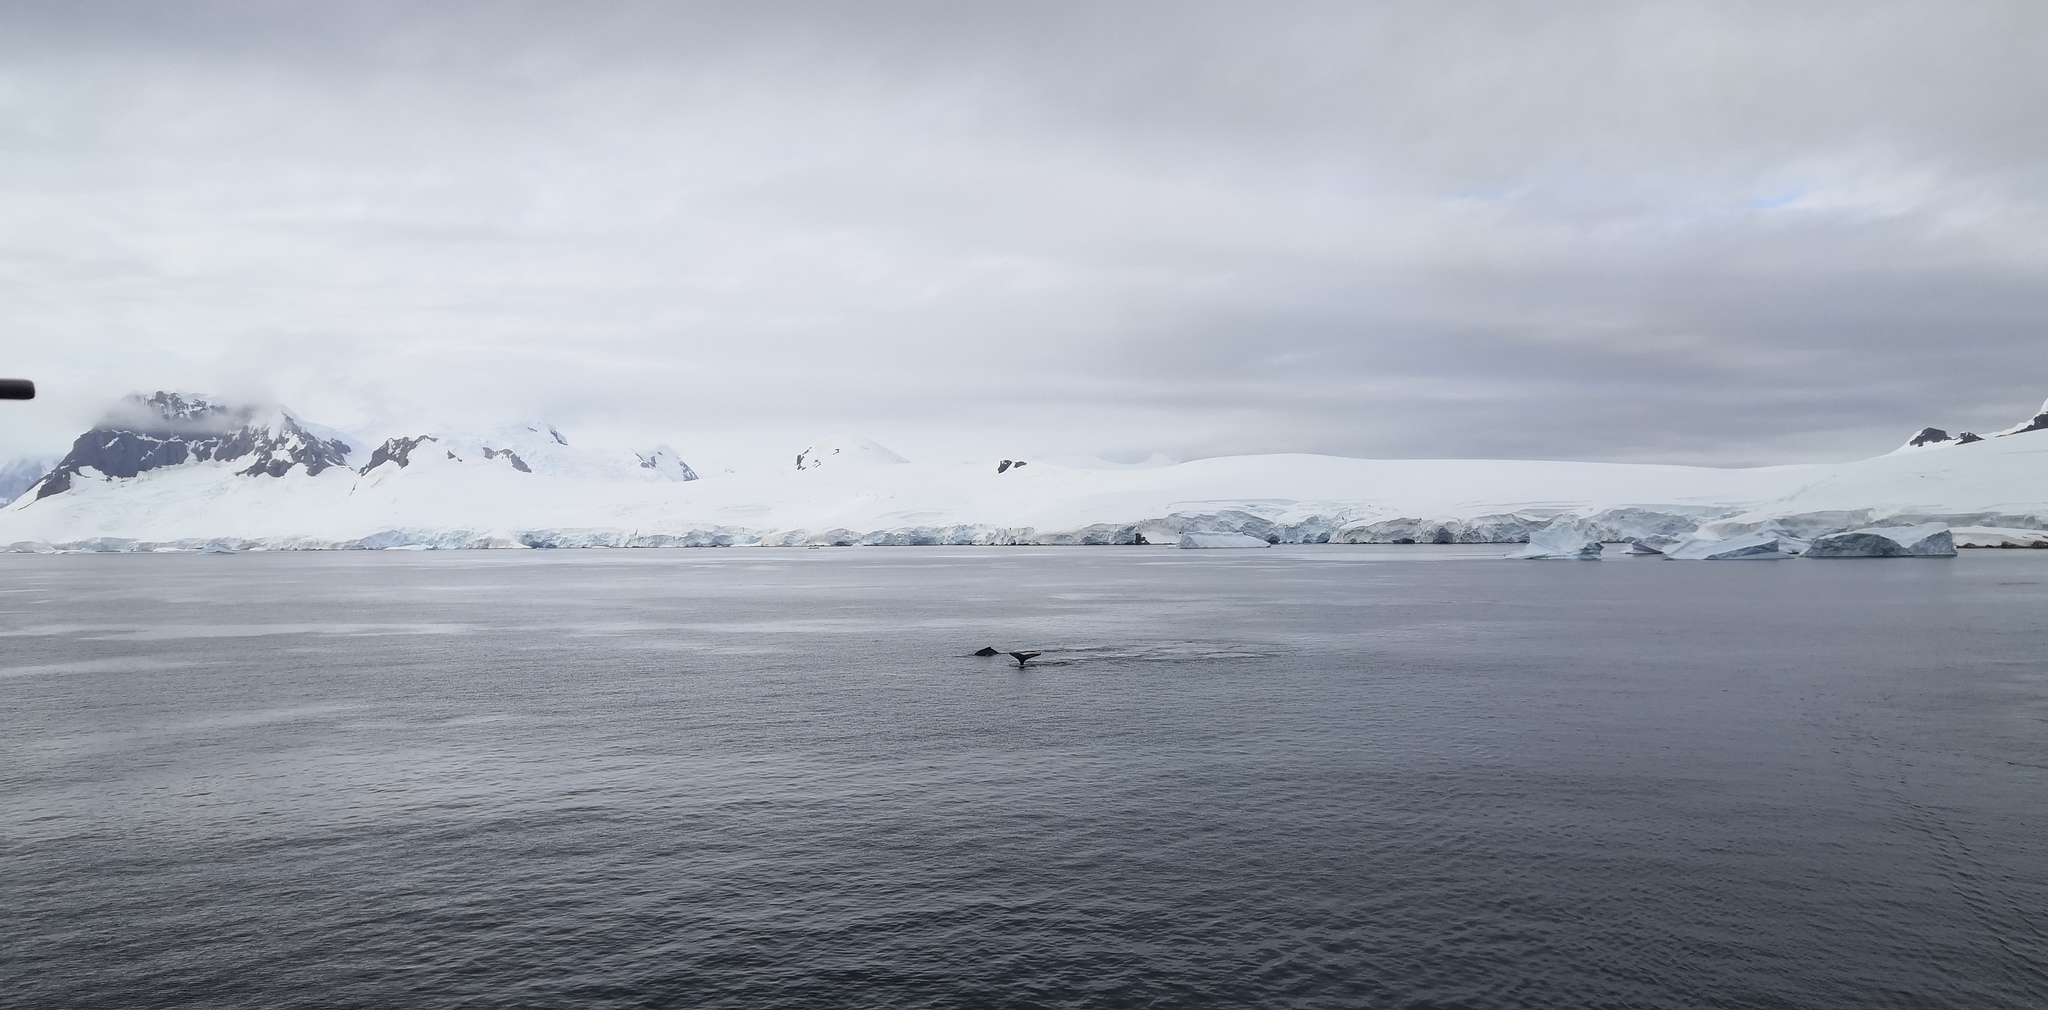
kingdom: Animalia
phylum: Chordata
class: Mammalia
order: Cetacea
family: Balaenopteridae
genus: Megaptera
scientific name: Megaptera novaeangliae
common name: Humpback whale
